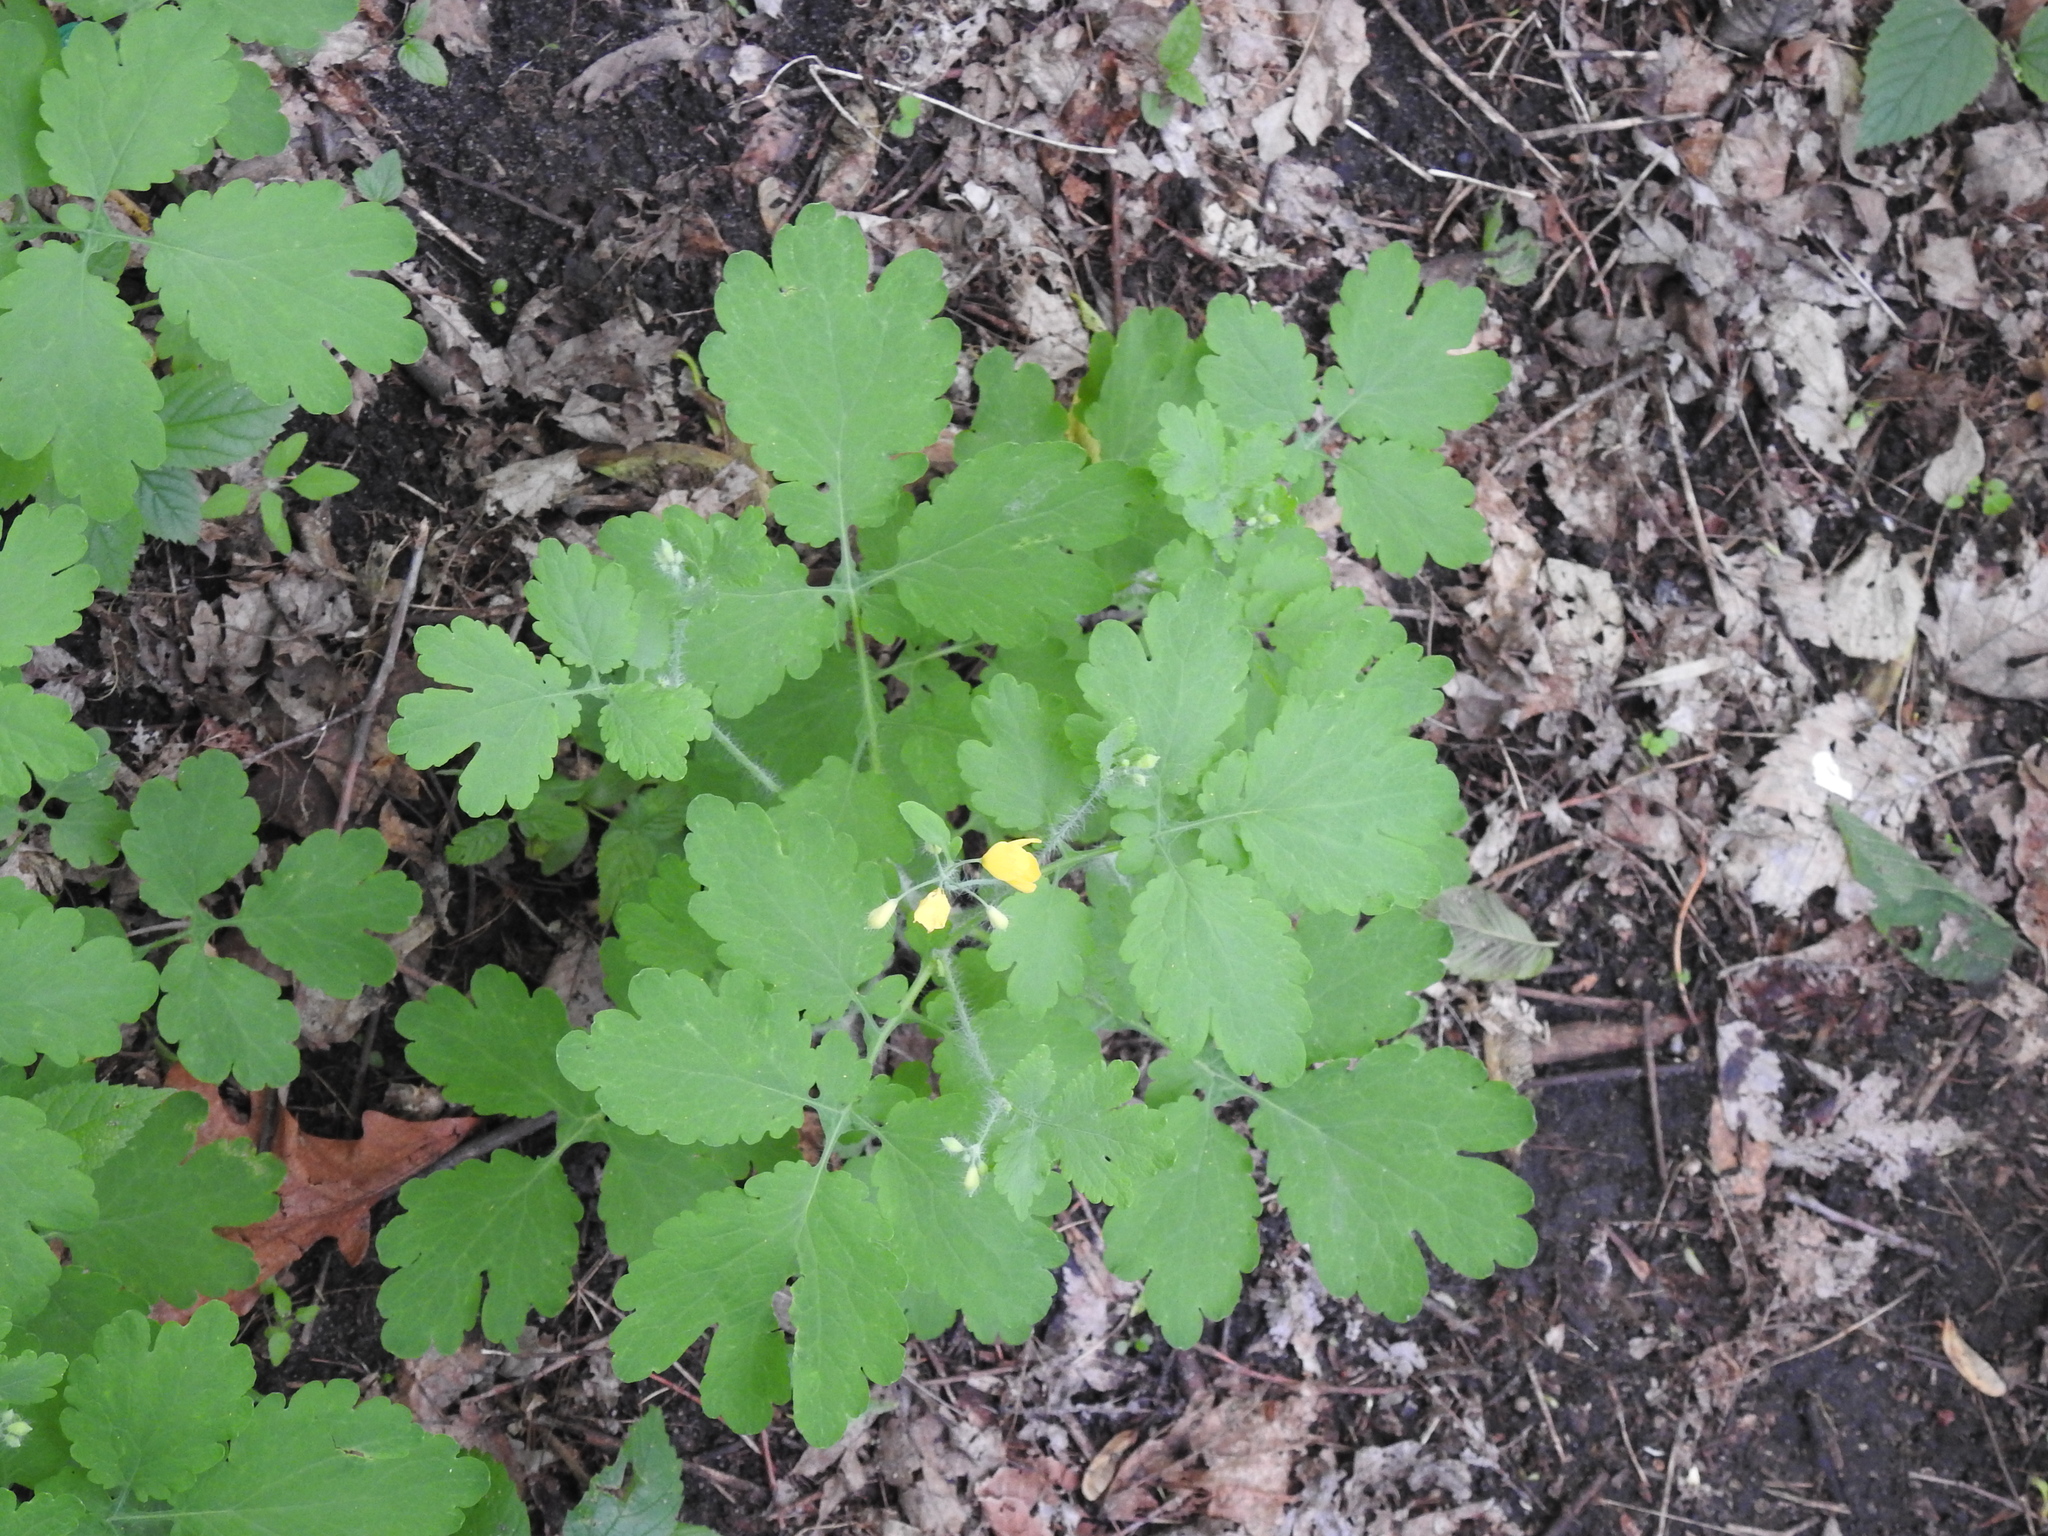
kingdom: Plantae
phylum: Tracheophyta
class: Magnoliopsida
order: Ranunculales
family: Papaveraceae
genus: Chelidonium
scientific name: Chelidonium majus
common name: Greater celandine
